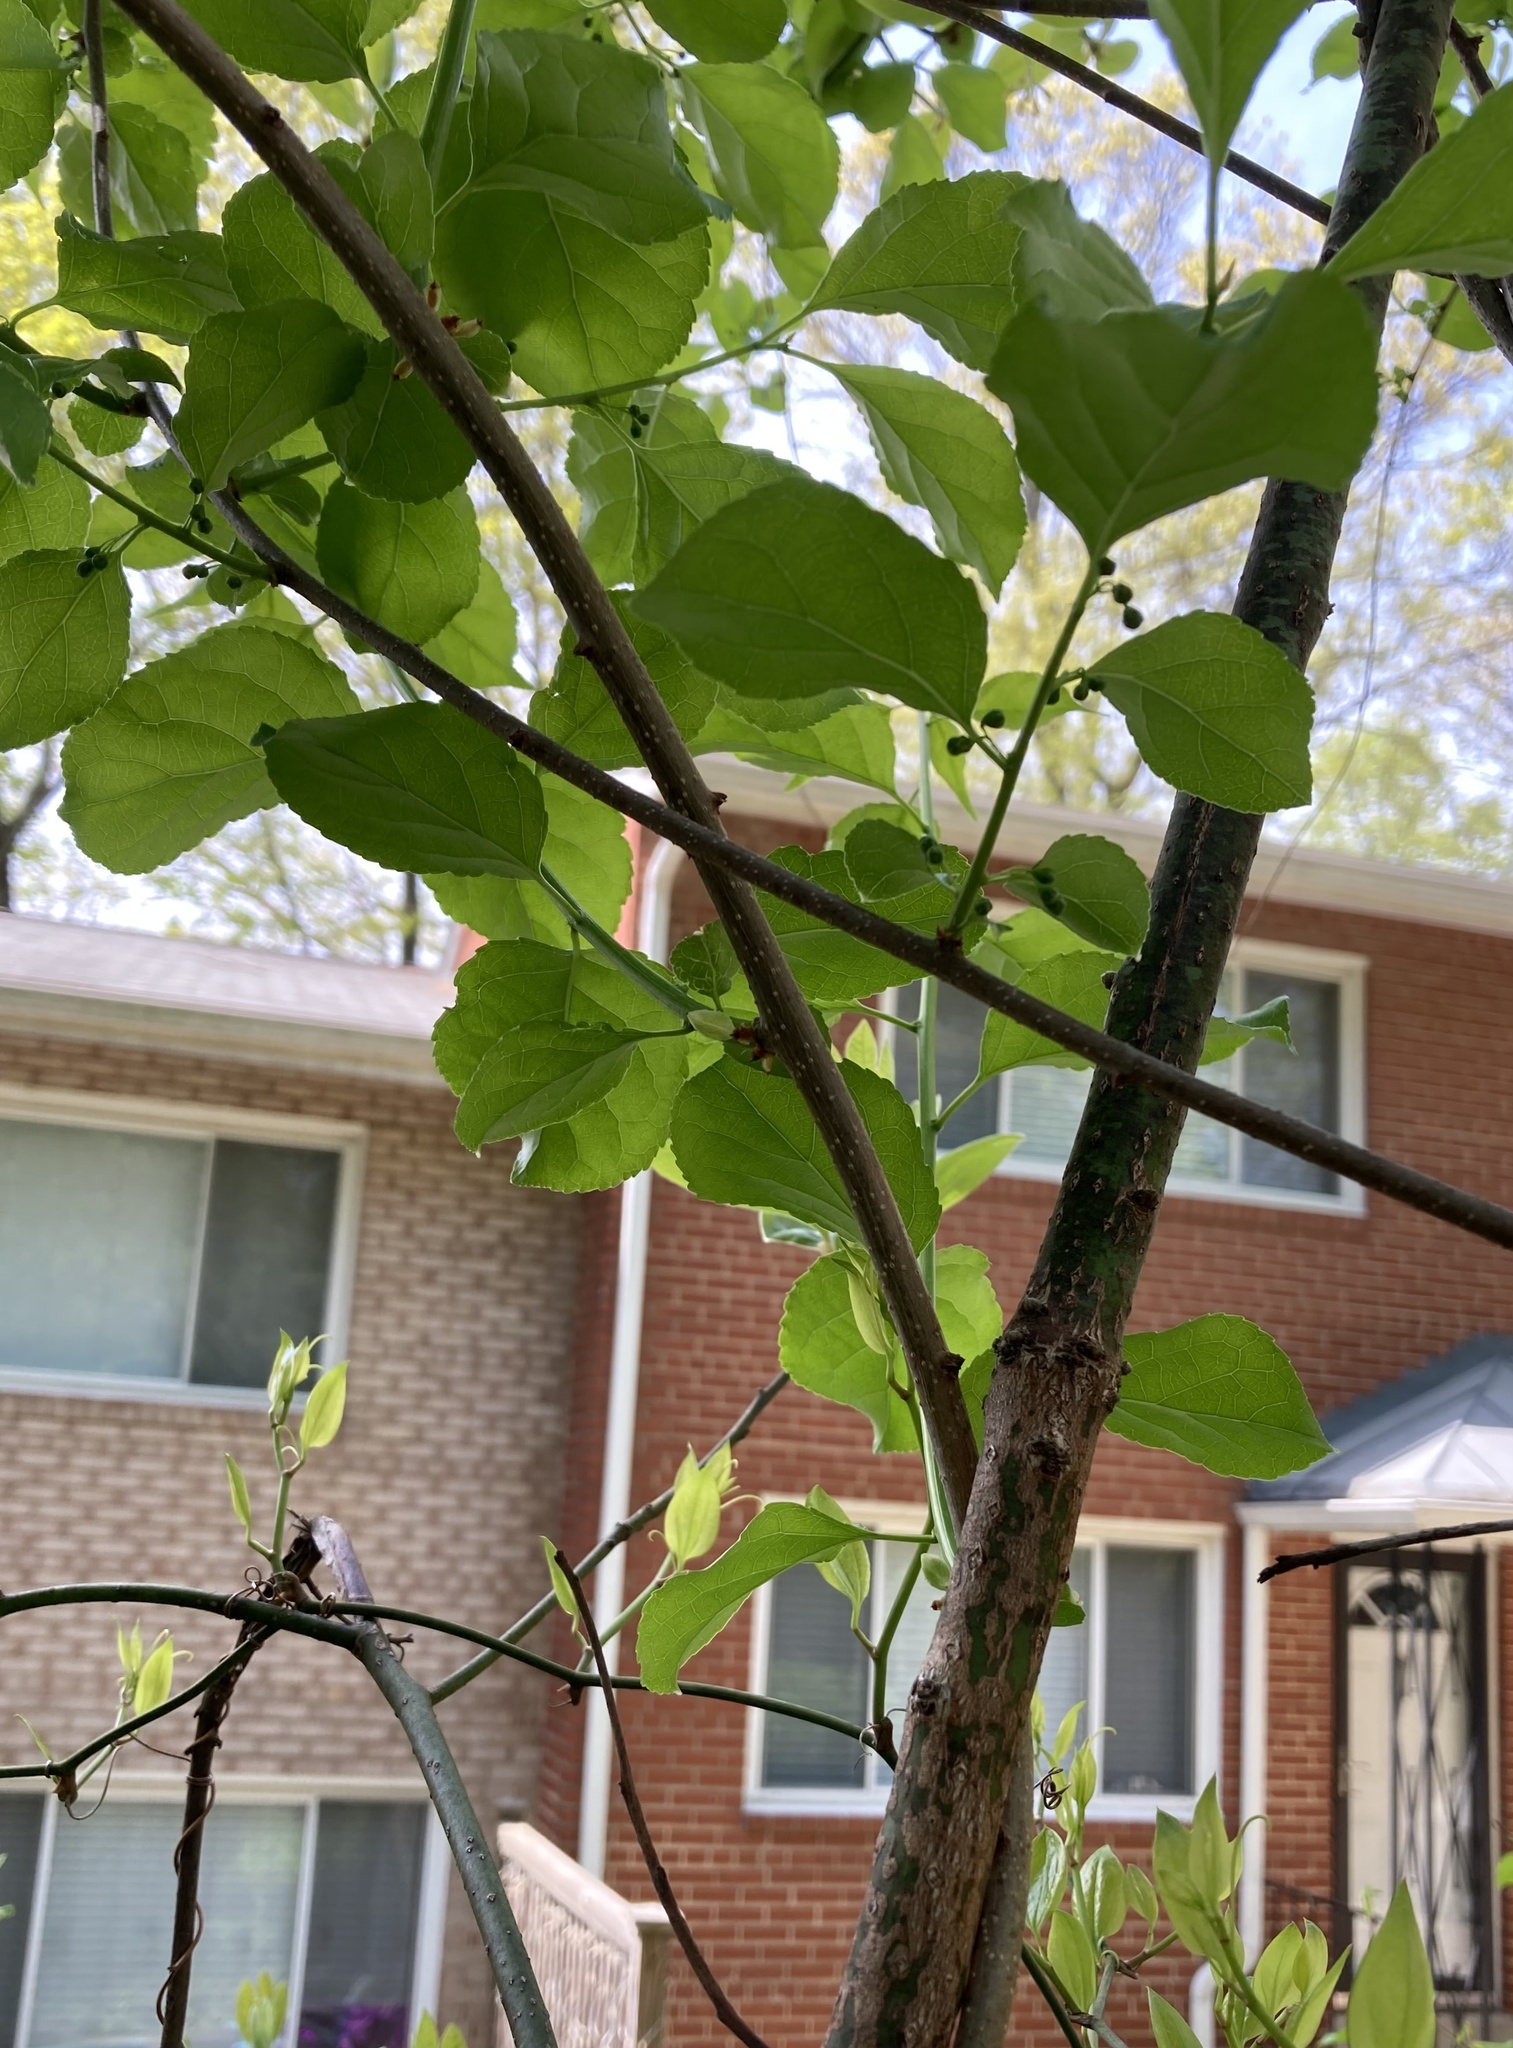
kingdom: Plantae
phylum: Tracheophyta
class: Magnoliopsida
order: Celastrales
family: Celastraceae
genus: Celastrus
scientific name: Celastrus orbiculatus
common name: Oriental bittersweet
